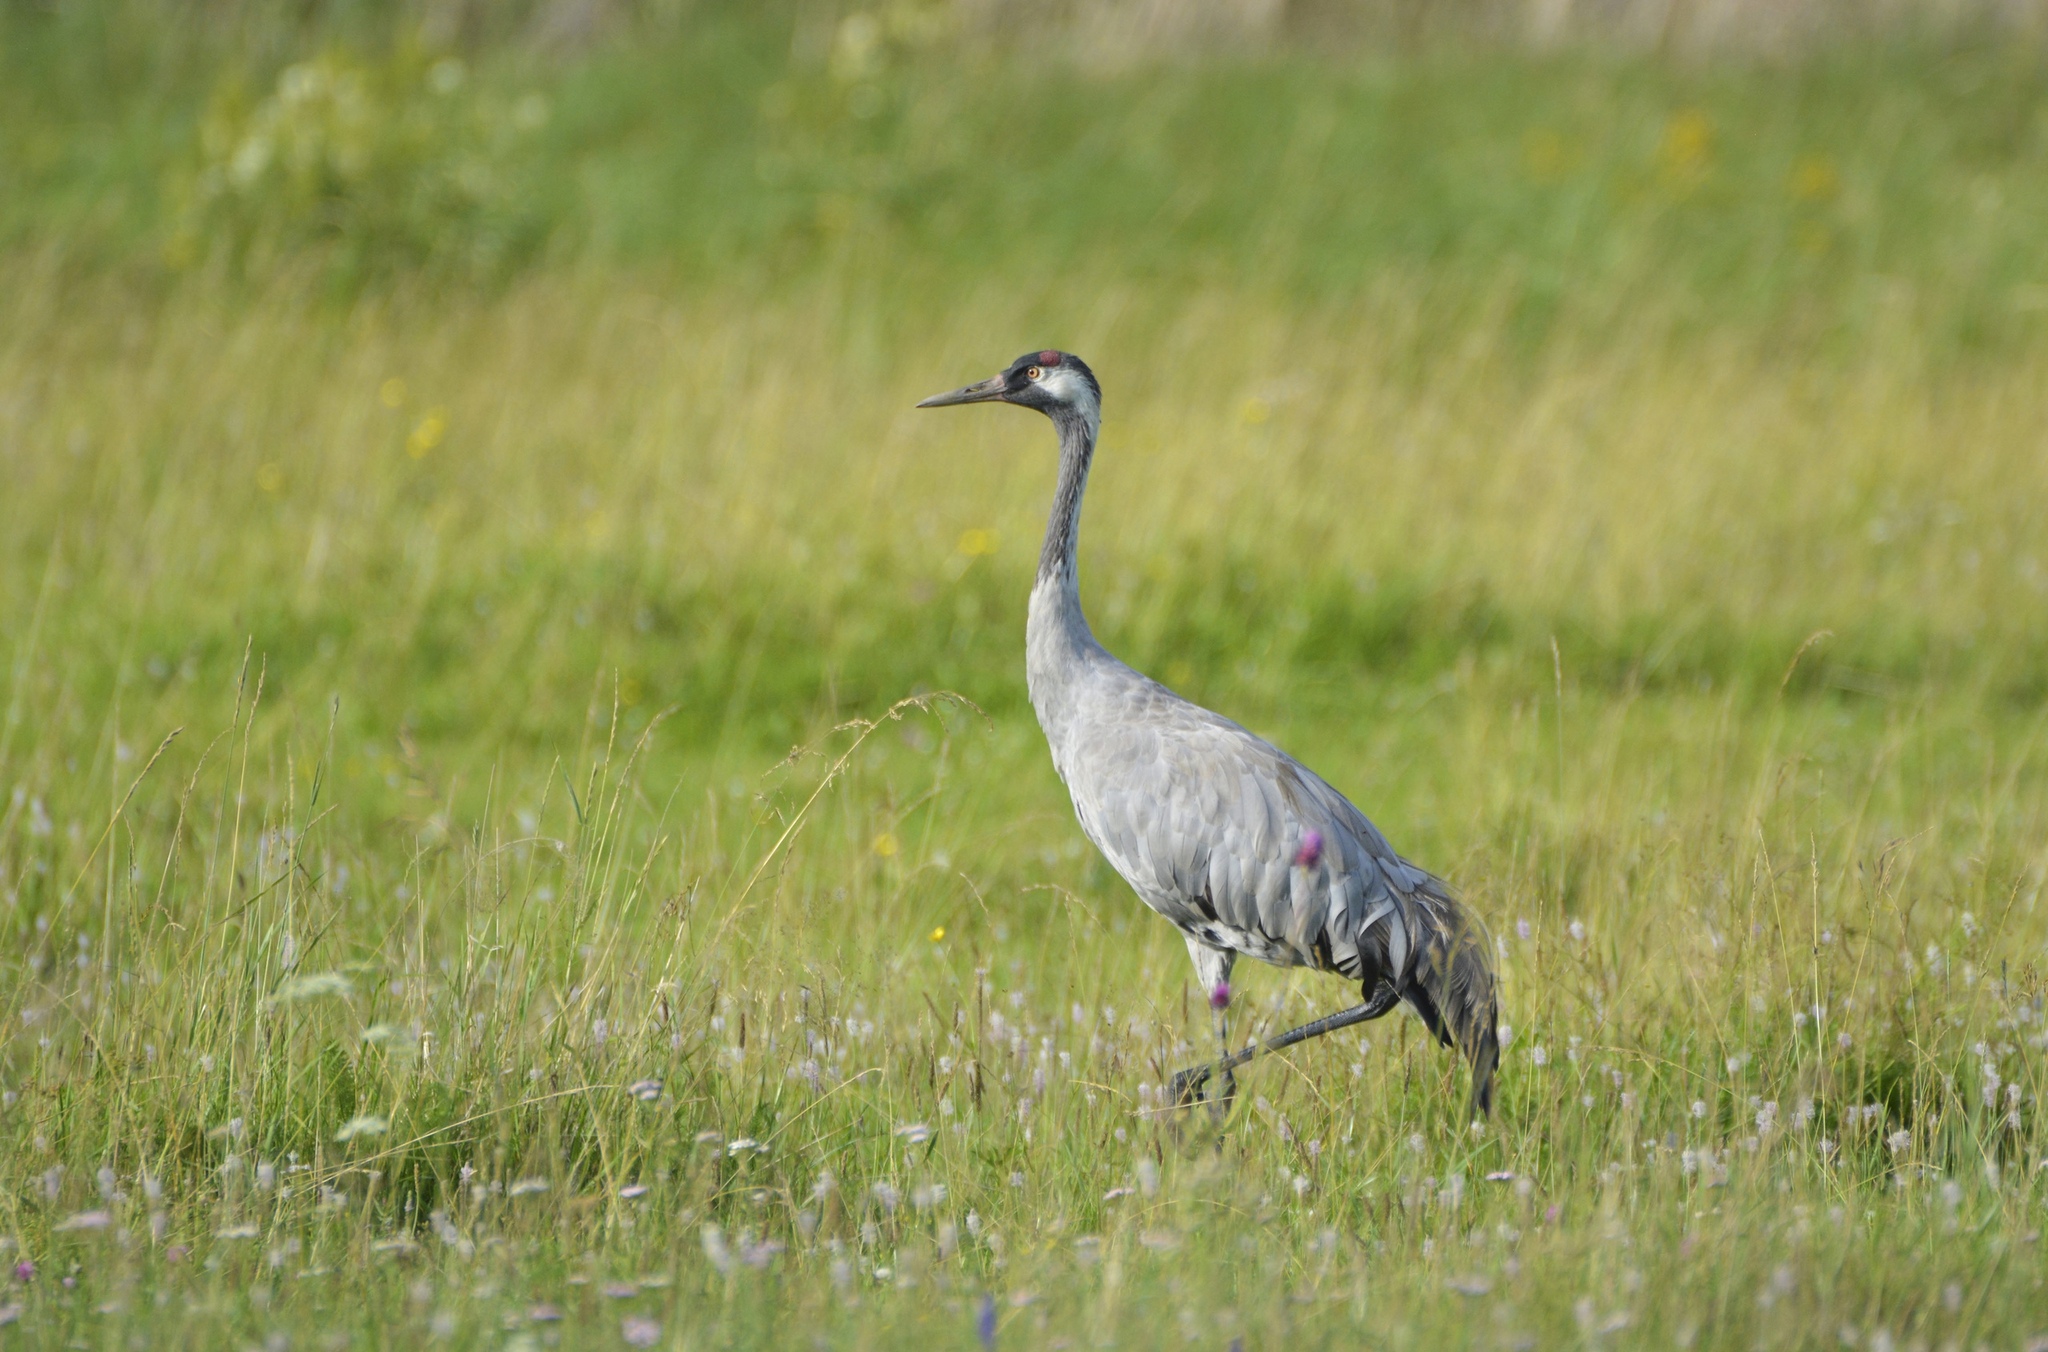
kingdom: Animalia
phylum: Chordata
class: Aves
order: Gruiformes
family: Gruidae
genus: Grus
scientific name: Grus grus
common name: Common crane
